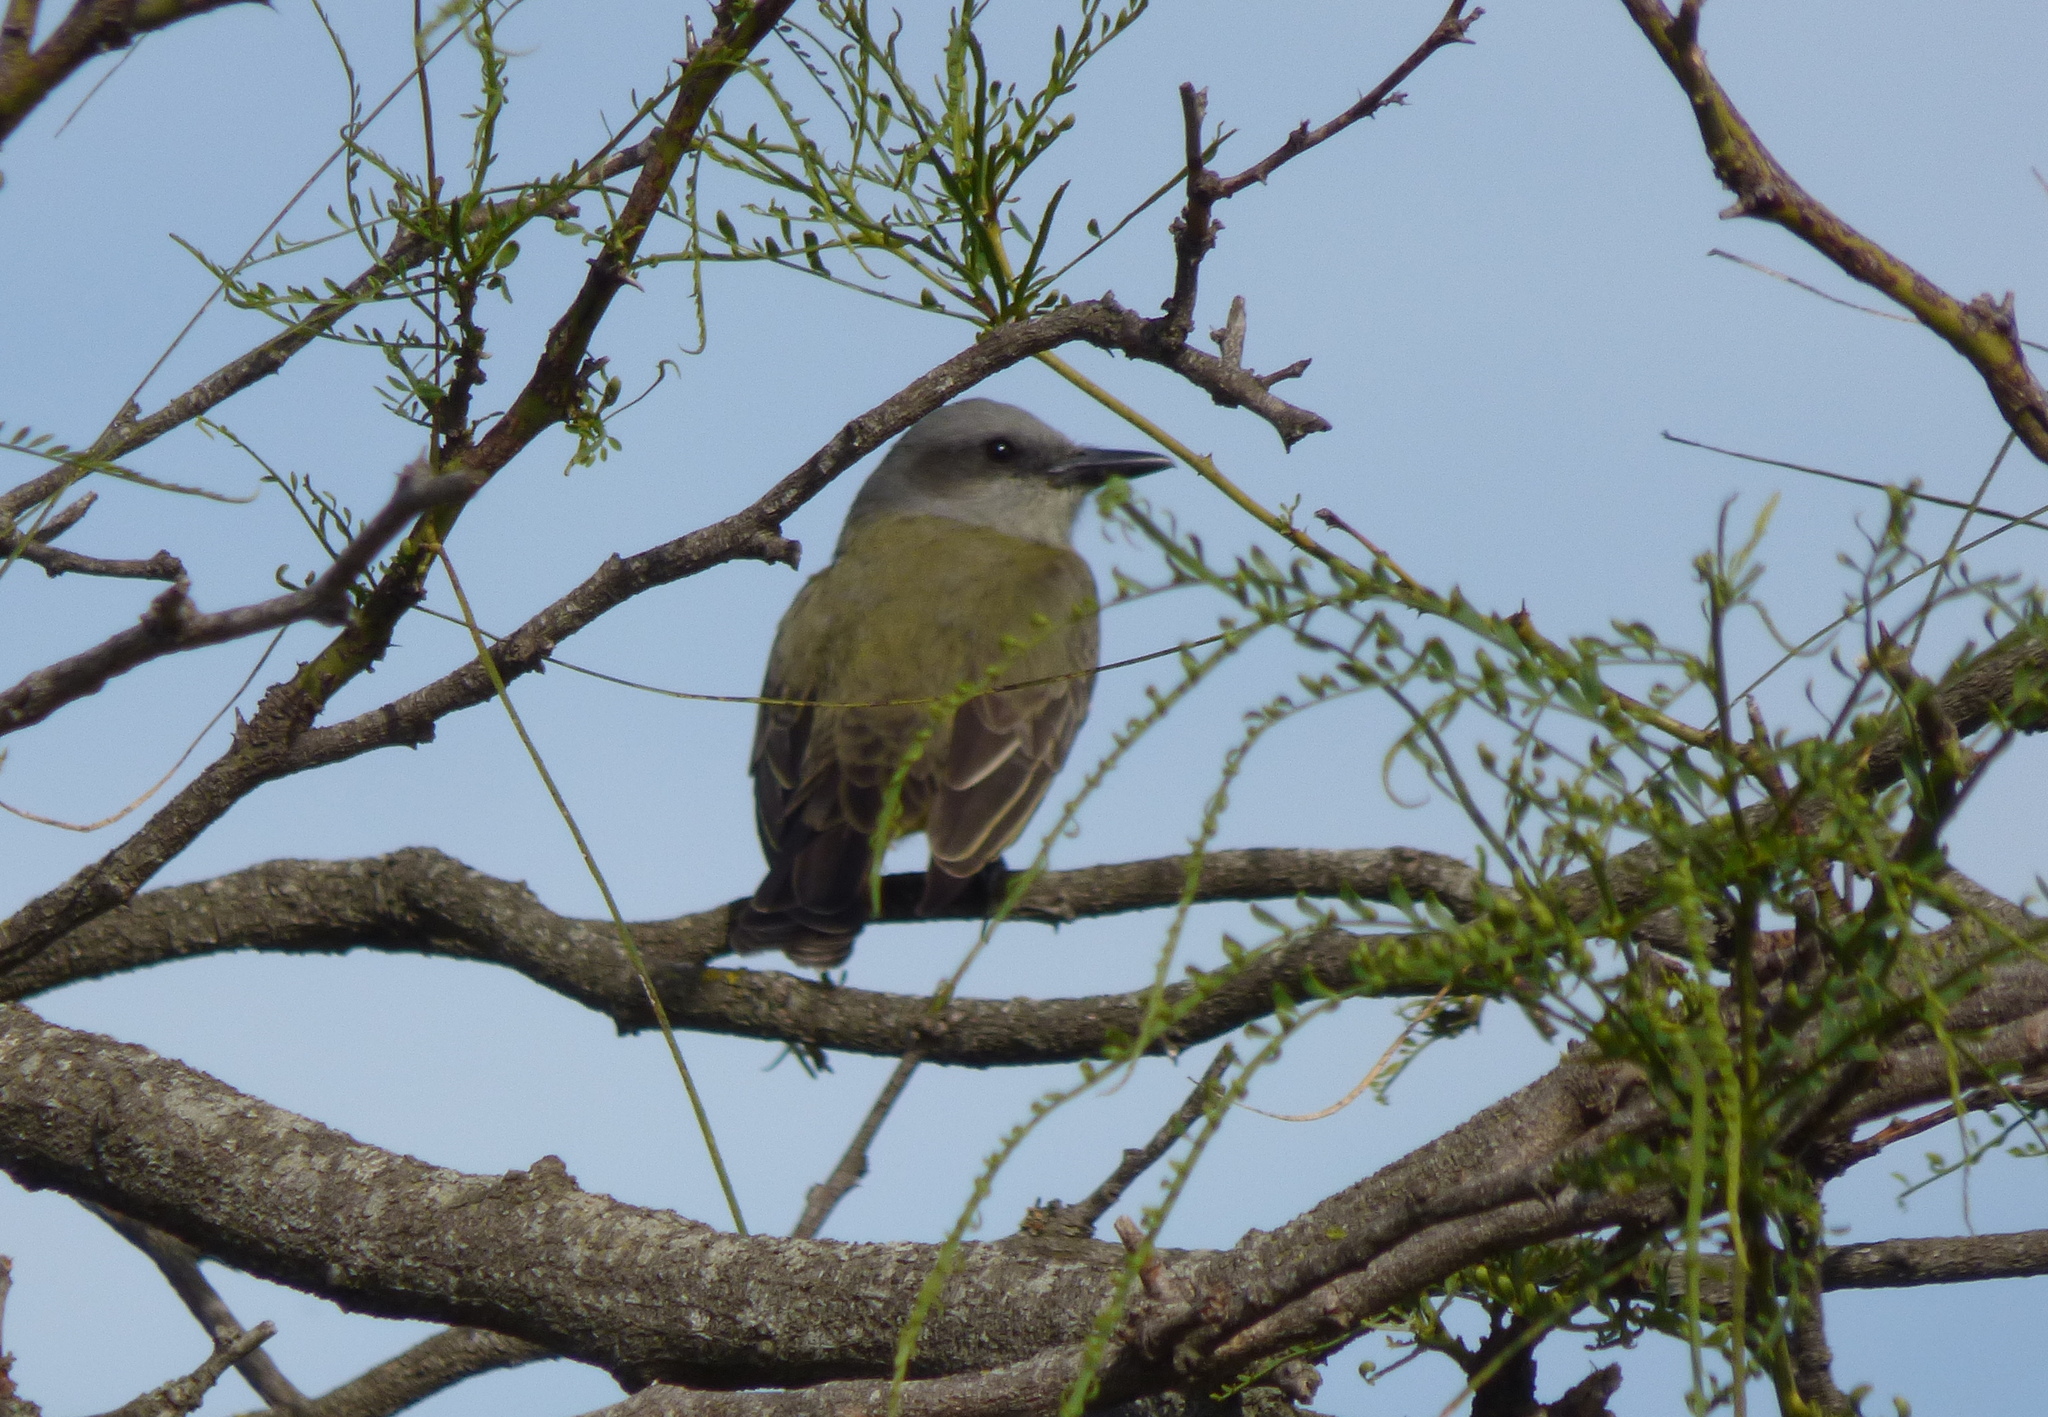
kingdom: Animalia
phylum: Chordata
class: Aves
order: Passeriformes
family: Tyrannidae
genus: Tyrannus
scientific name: Tyrannus melancholicus
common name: Tropical kingbird
